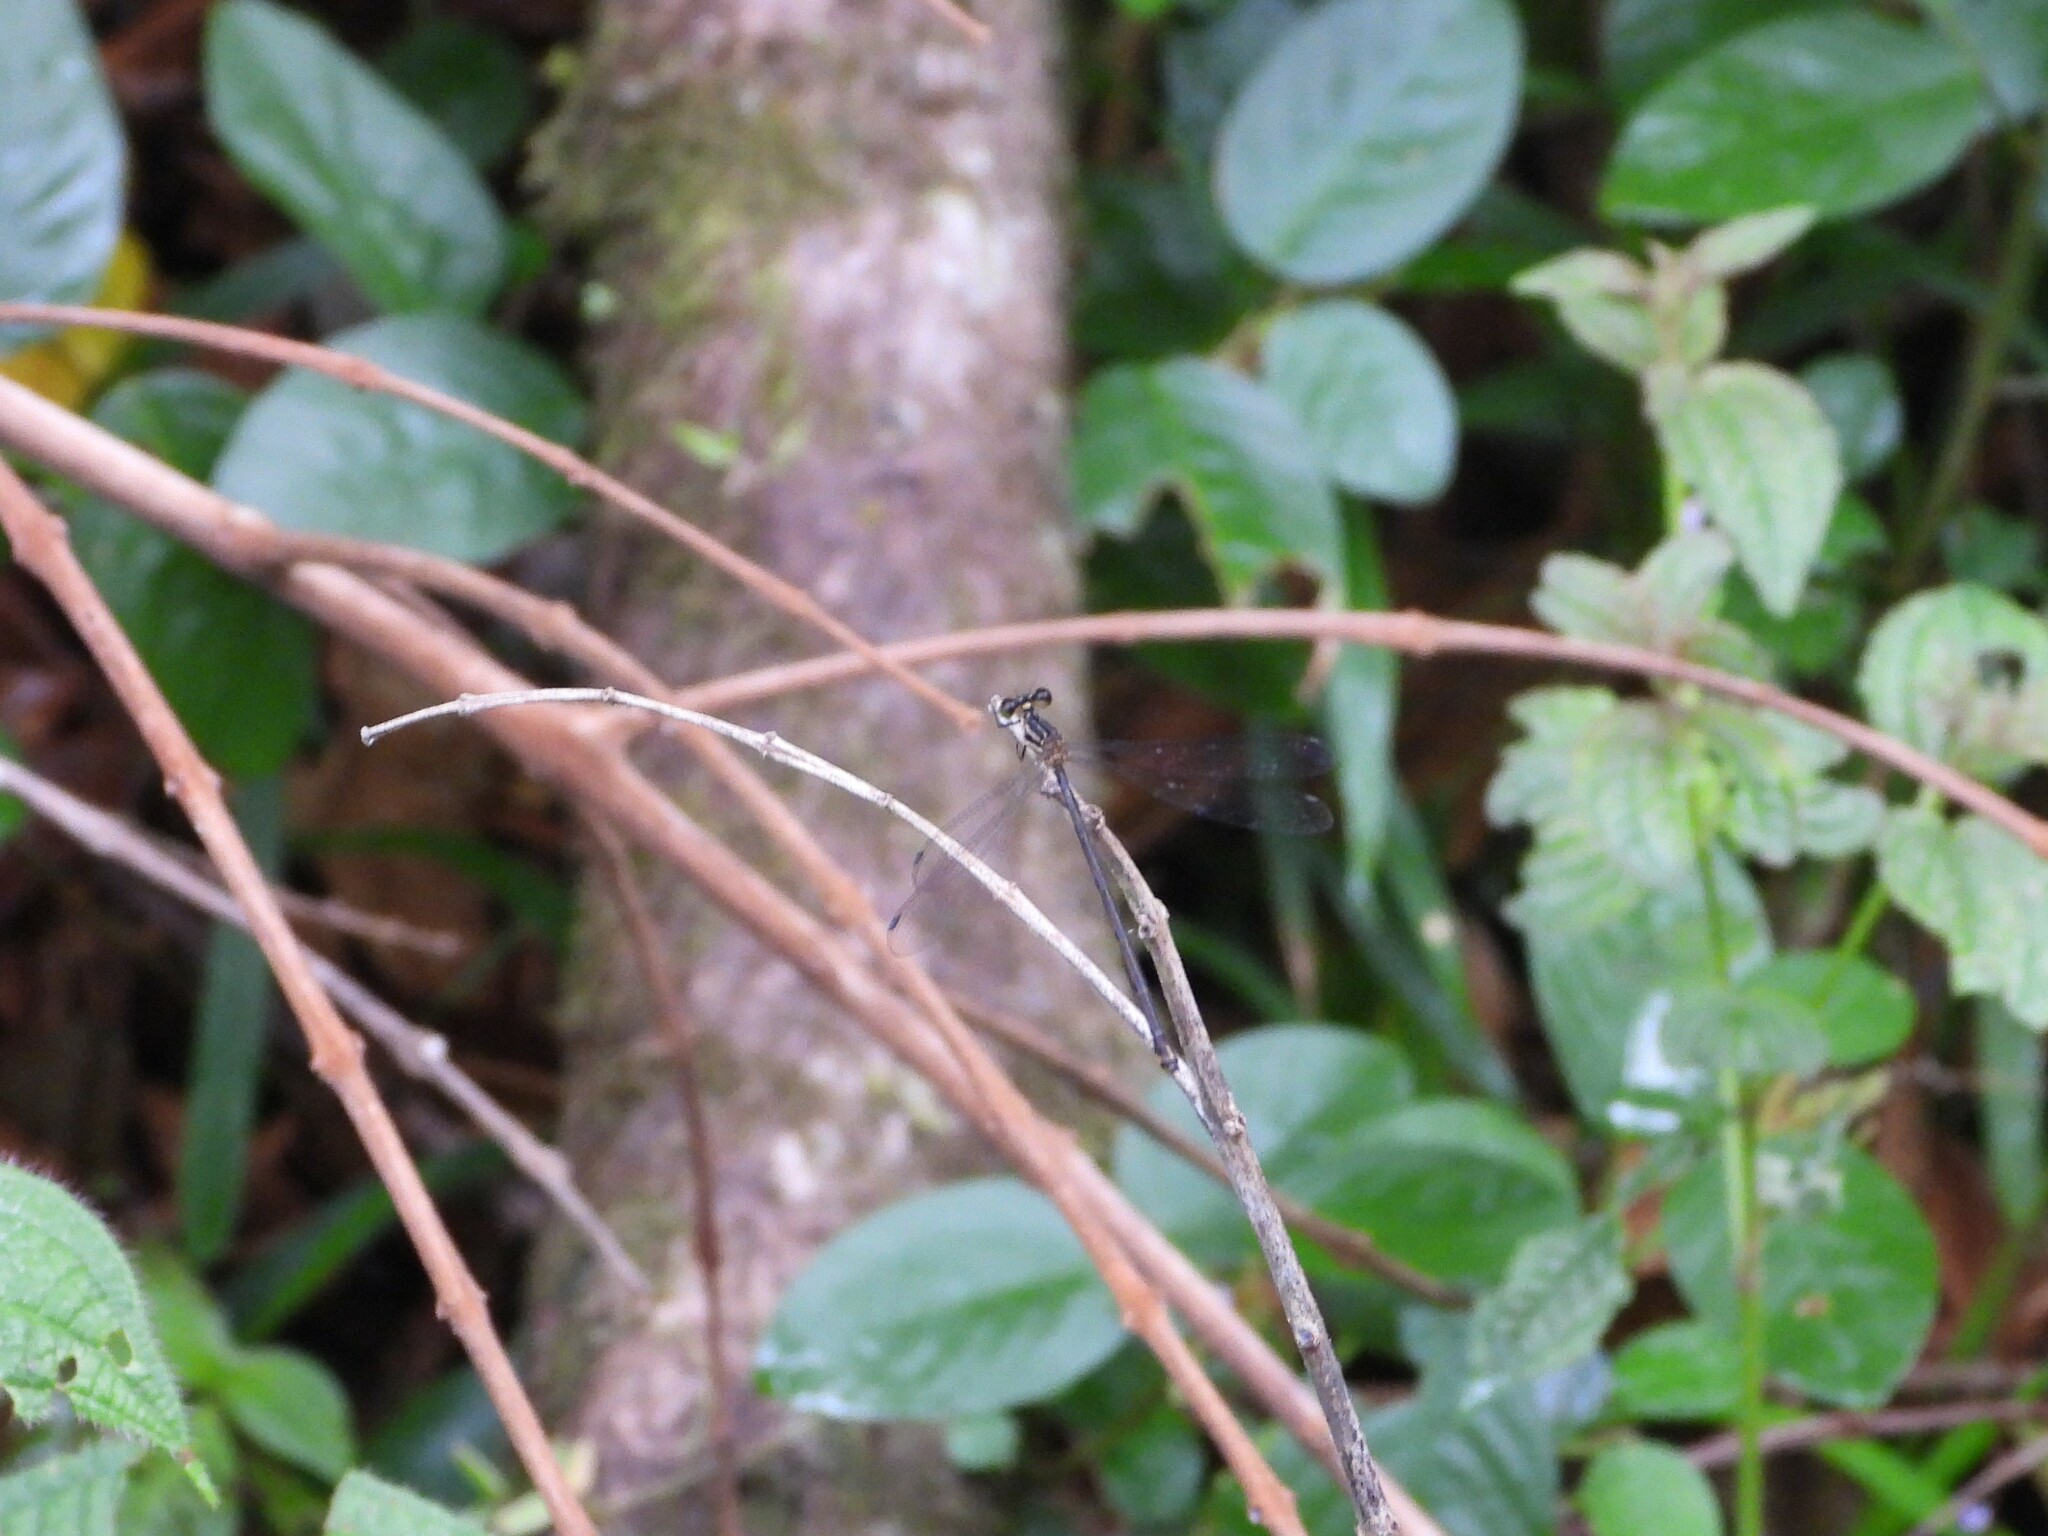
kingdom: Animalia
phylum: Arthropoda
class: Insecta
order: Odonata
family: Heteragrionidae
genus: Heteragrion
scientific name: Heteragrion mitratum
